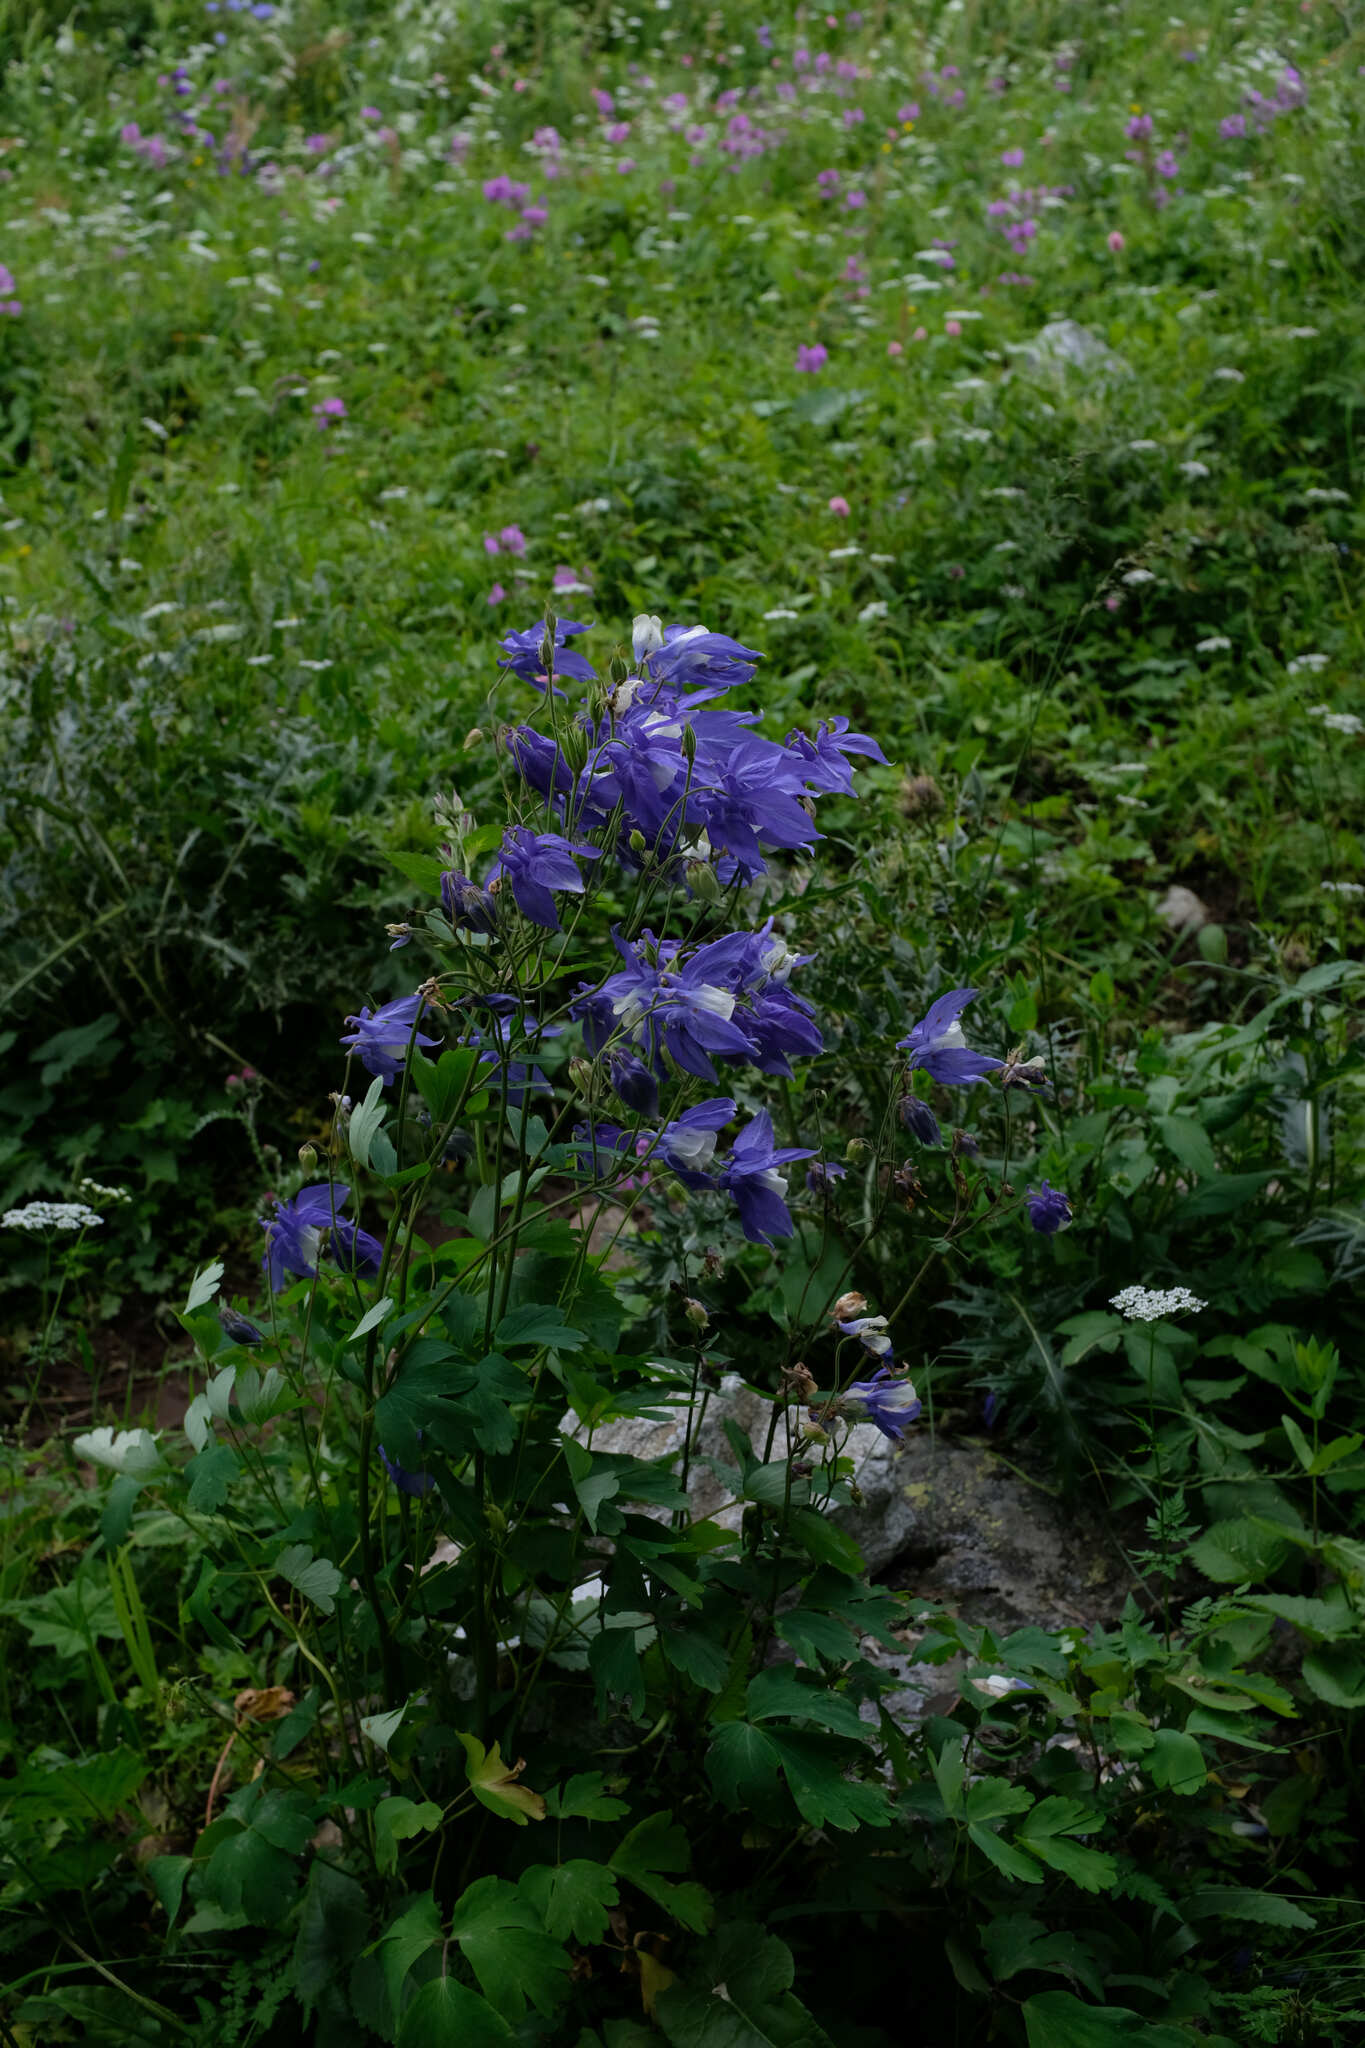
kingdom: Plantae
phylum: Tracheophyta
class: Magnoliopsida
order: Ranunculales
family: Ranunculaceae
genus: Aquilegia
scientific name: Aquilegia olympica
